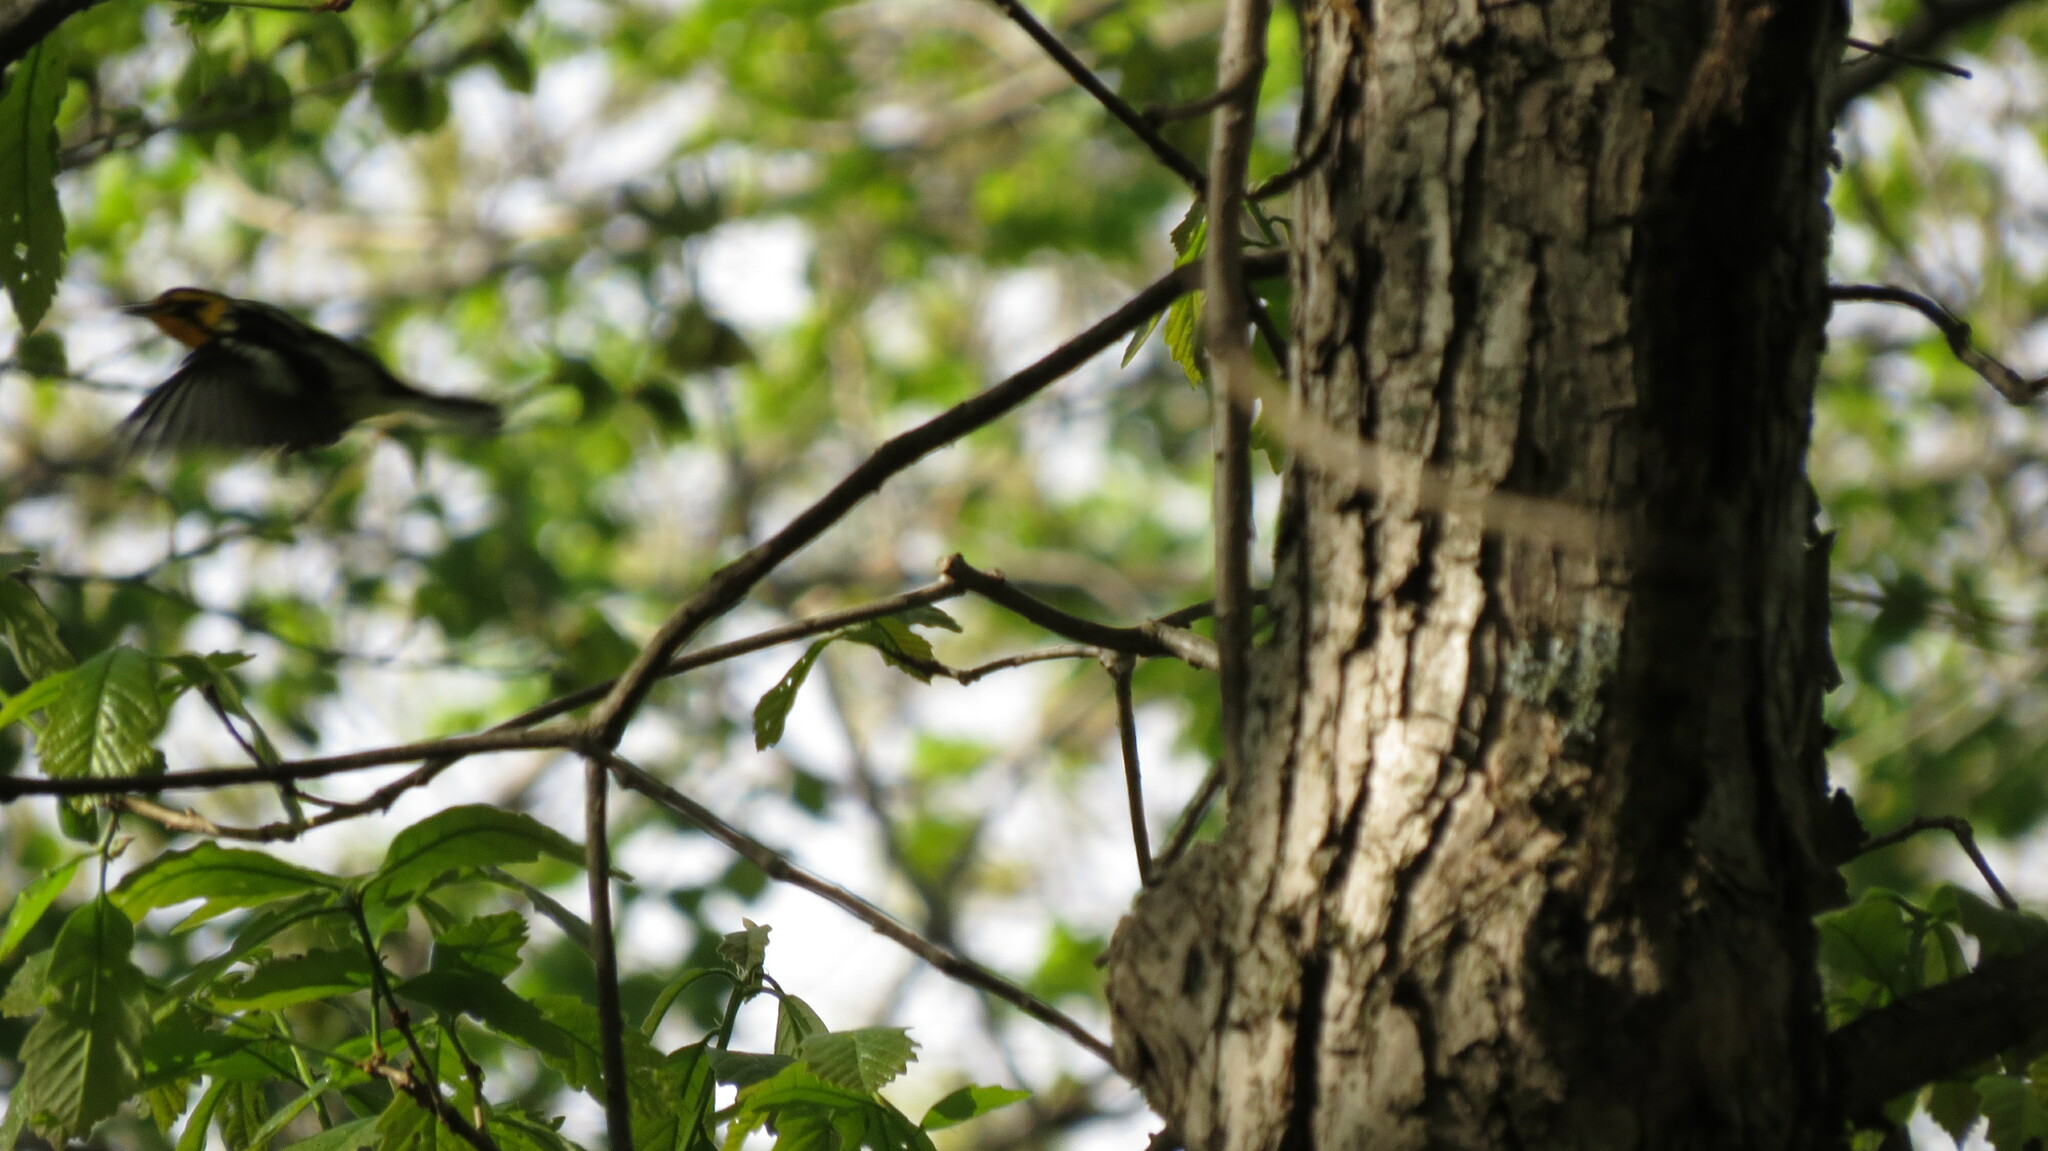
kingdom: Animalia
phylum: Chordata
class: Aves
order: Passeriformes
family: Parulidae
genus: Setophaga
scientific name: Setophaga fusca
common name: Blackburnian warbler
